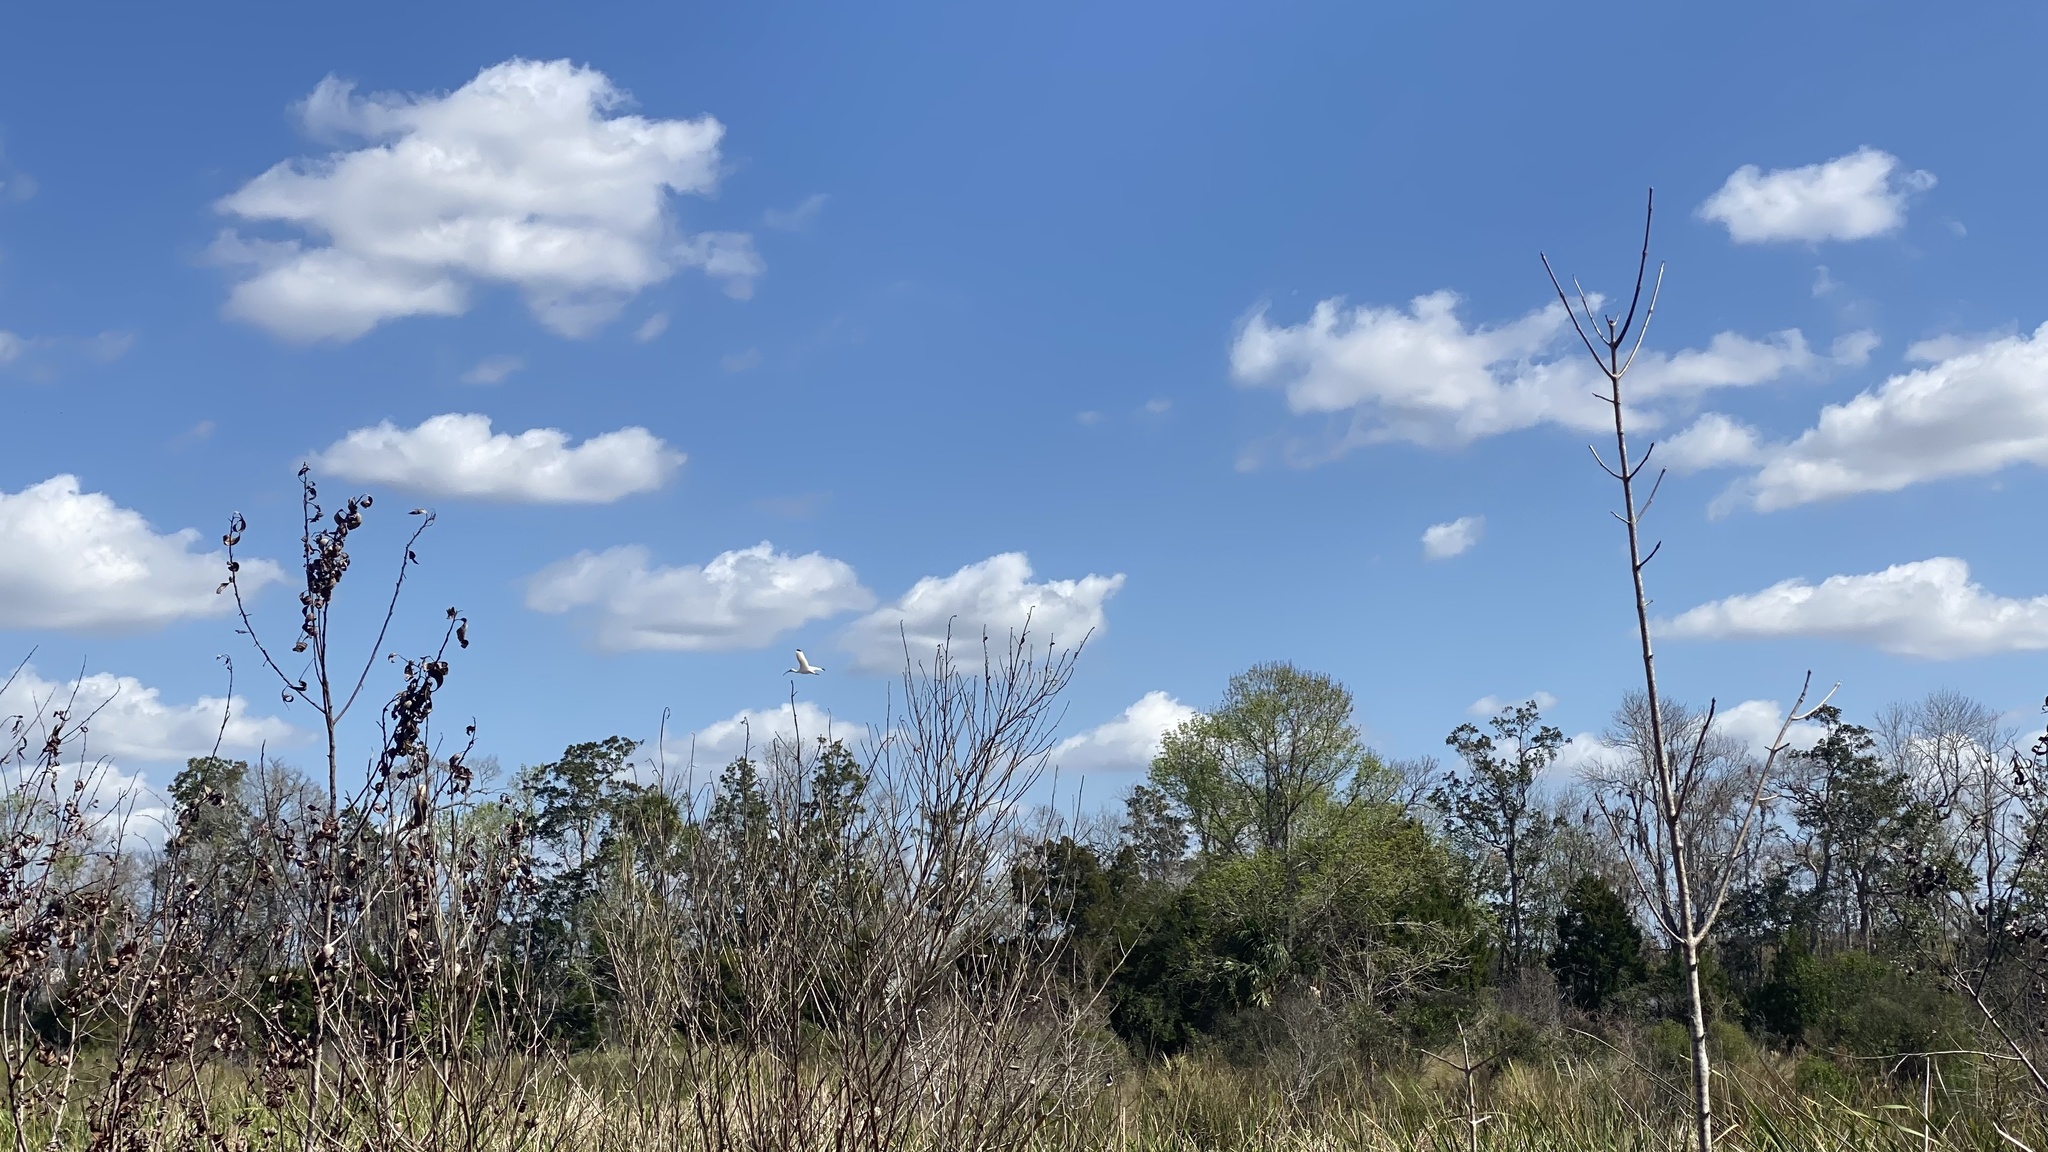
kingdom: Animalia
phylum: Chordata
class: Aves
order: Pelecaniformes
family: Threskiornithidae
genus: Eudocimus
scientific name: Eudocimus albus
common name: White ibis
